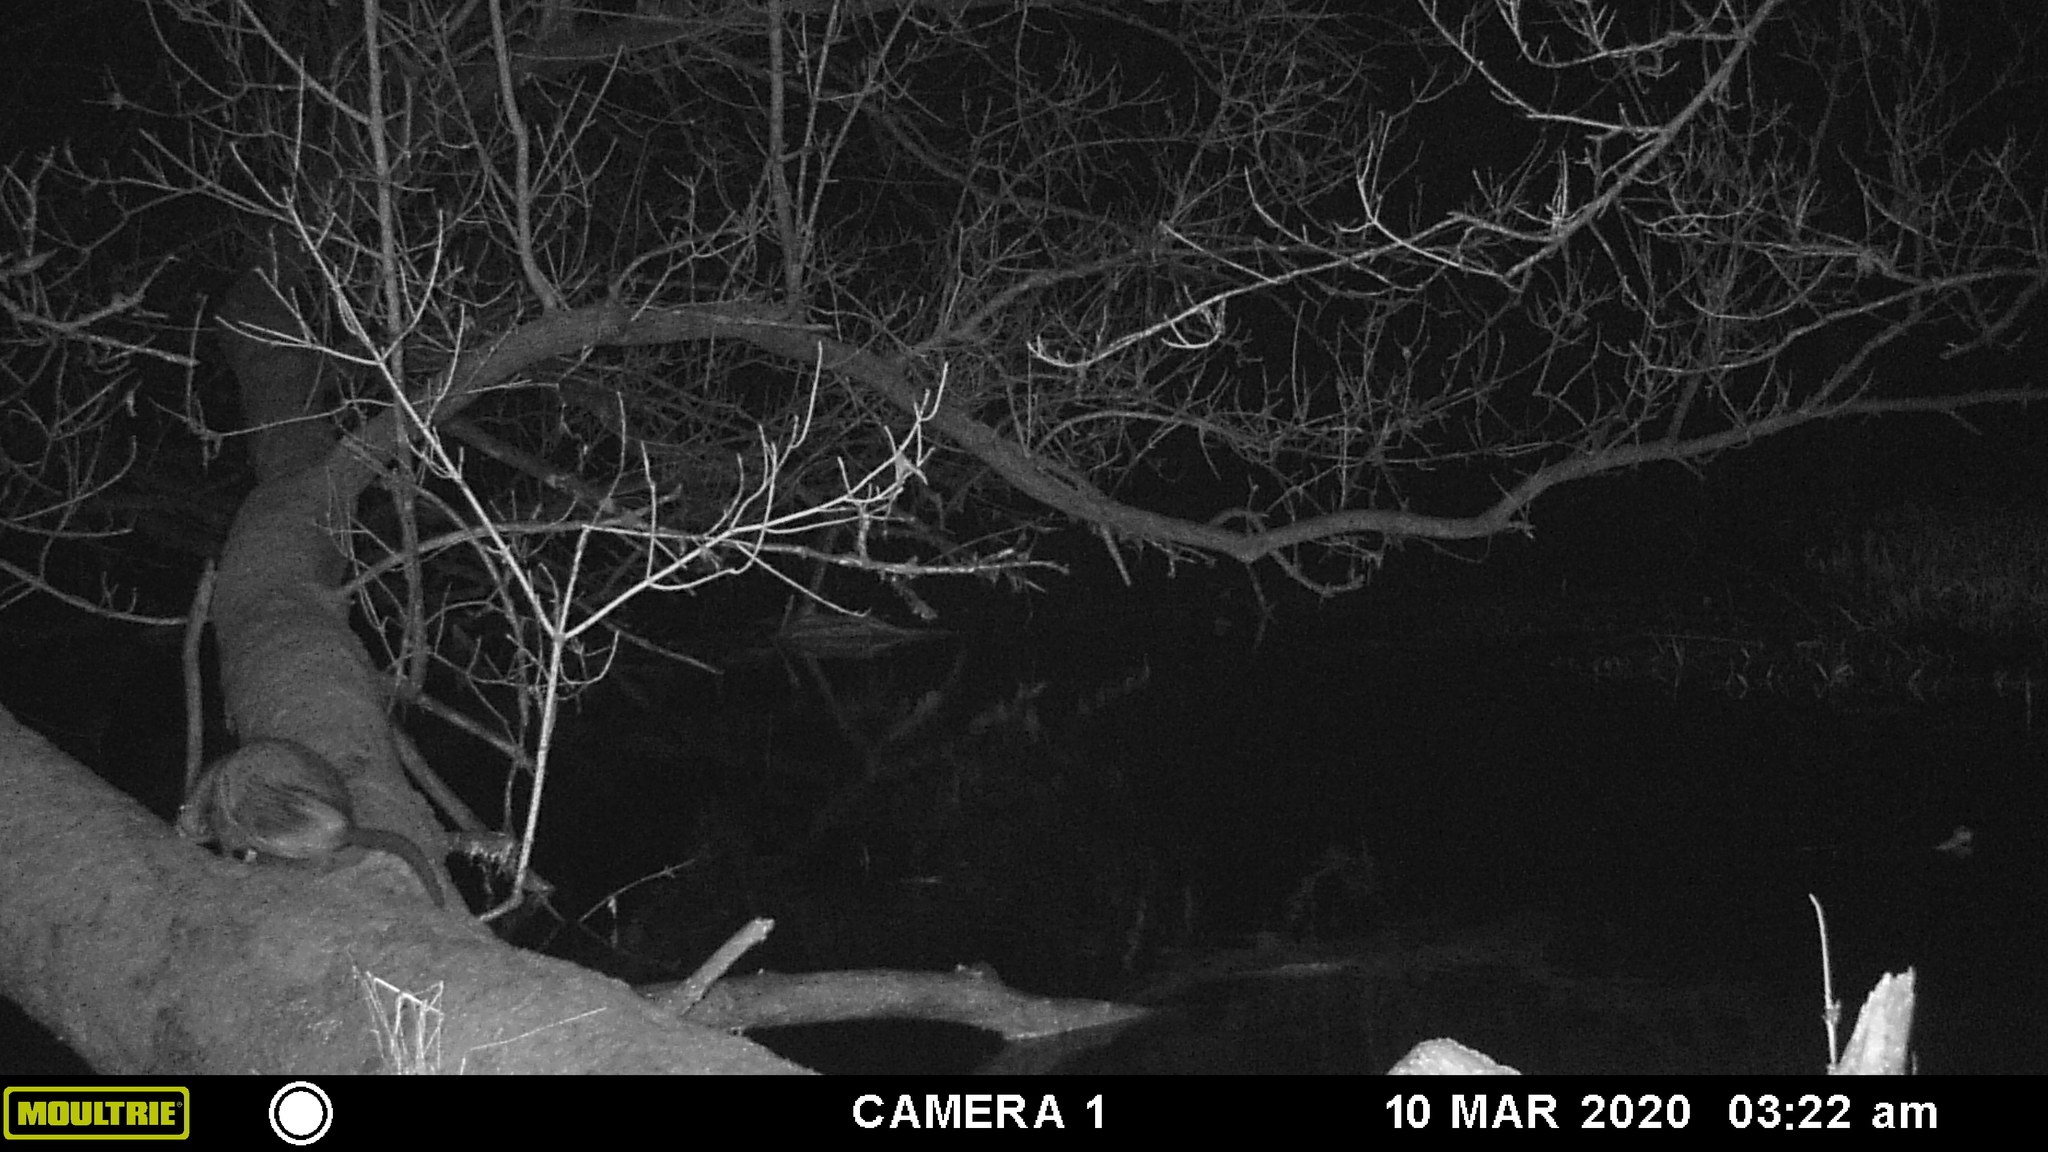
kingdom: Animalia
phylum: Chordata
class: Mammalia
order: Rodentia
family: Cricetidae
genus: Ondatra
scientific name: Ondatra zibethicus
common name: Muskrat
